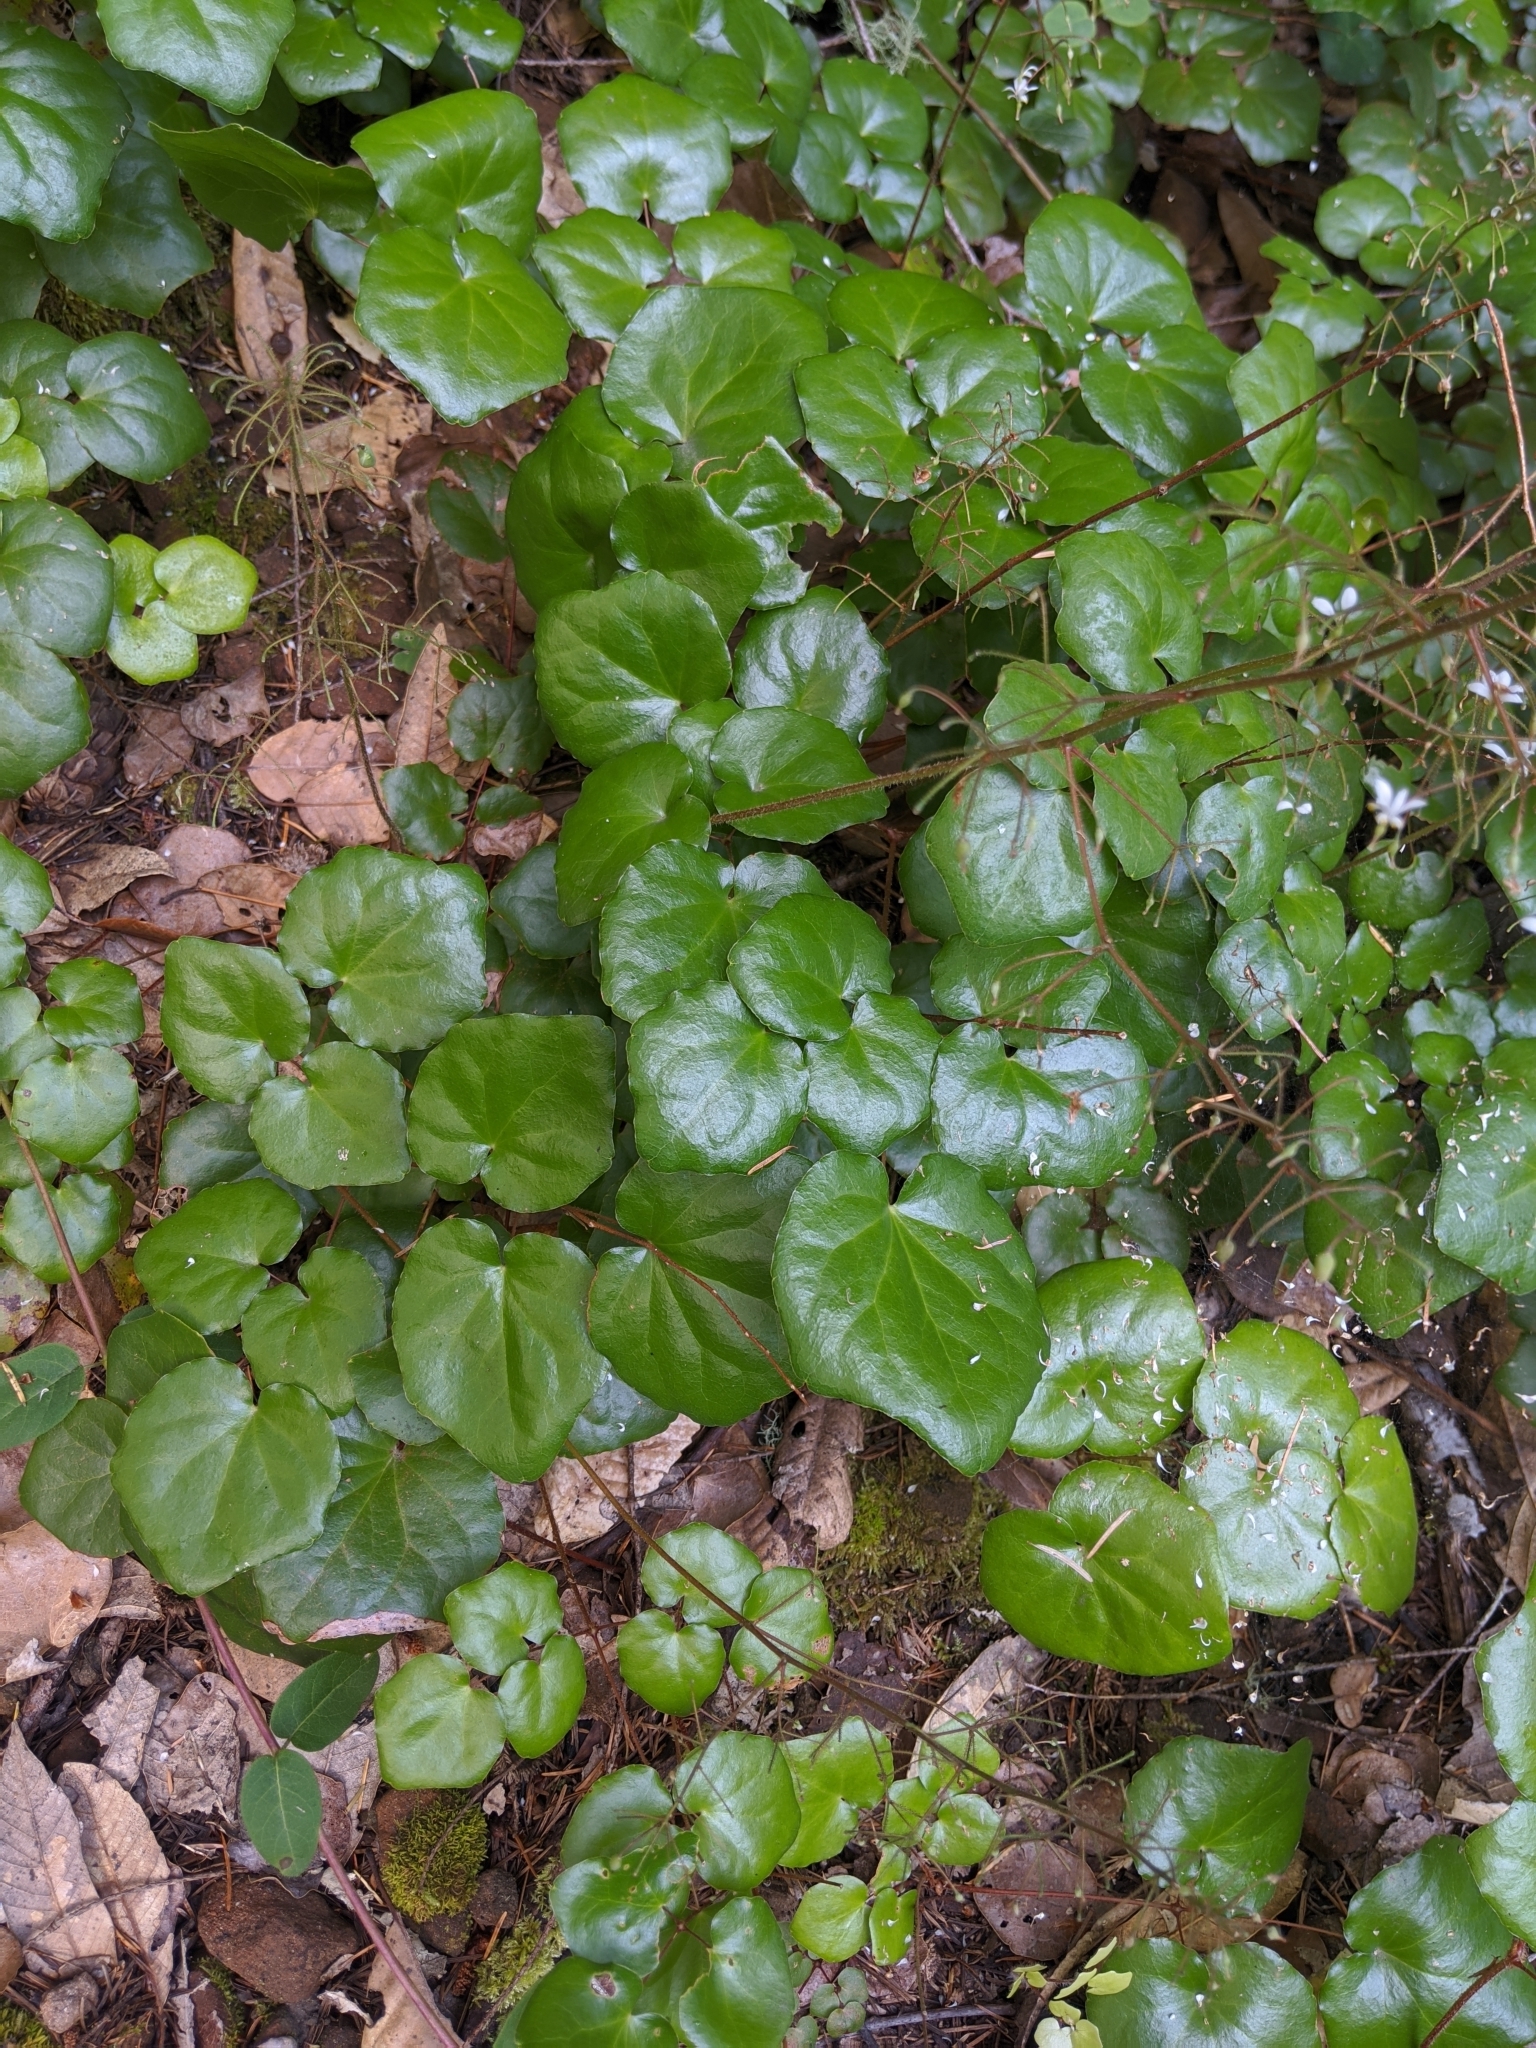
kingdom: Plantae
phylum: Tracheophyta
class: Magnoliopsida
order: Ranunculales
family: Berberidaceae
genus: Vancouveria
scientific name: Vancouveria planipetala
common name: Redwood-ivy
